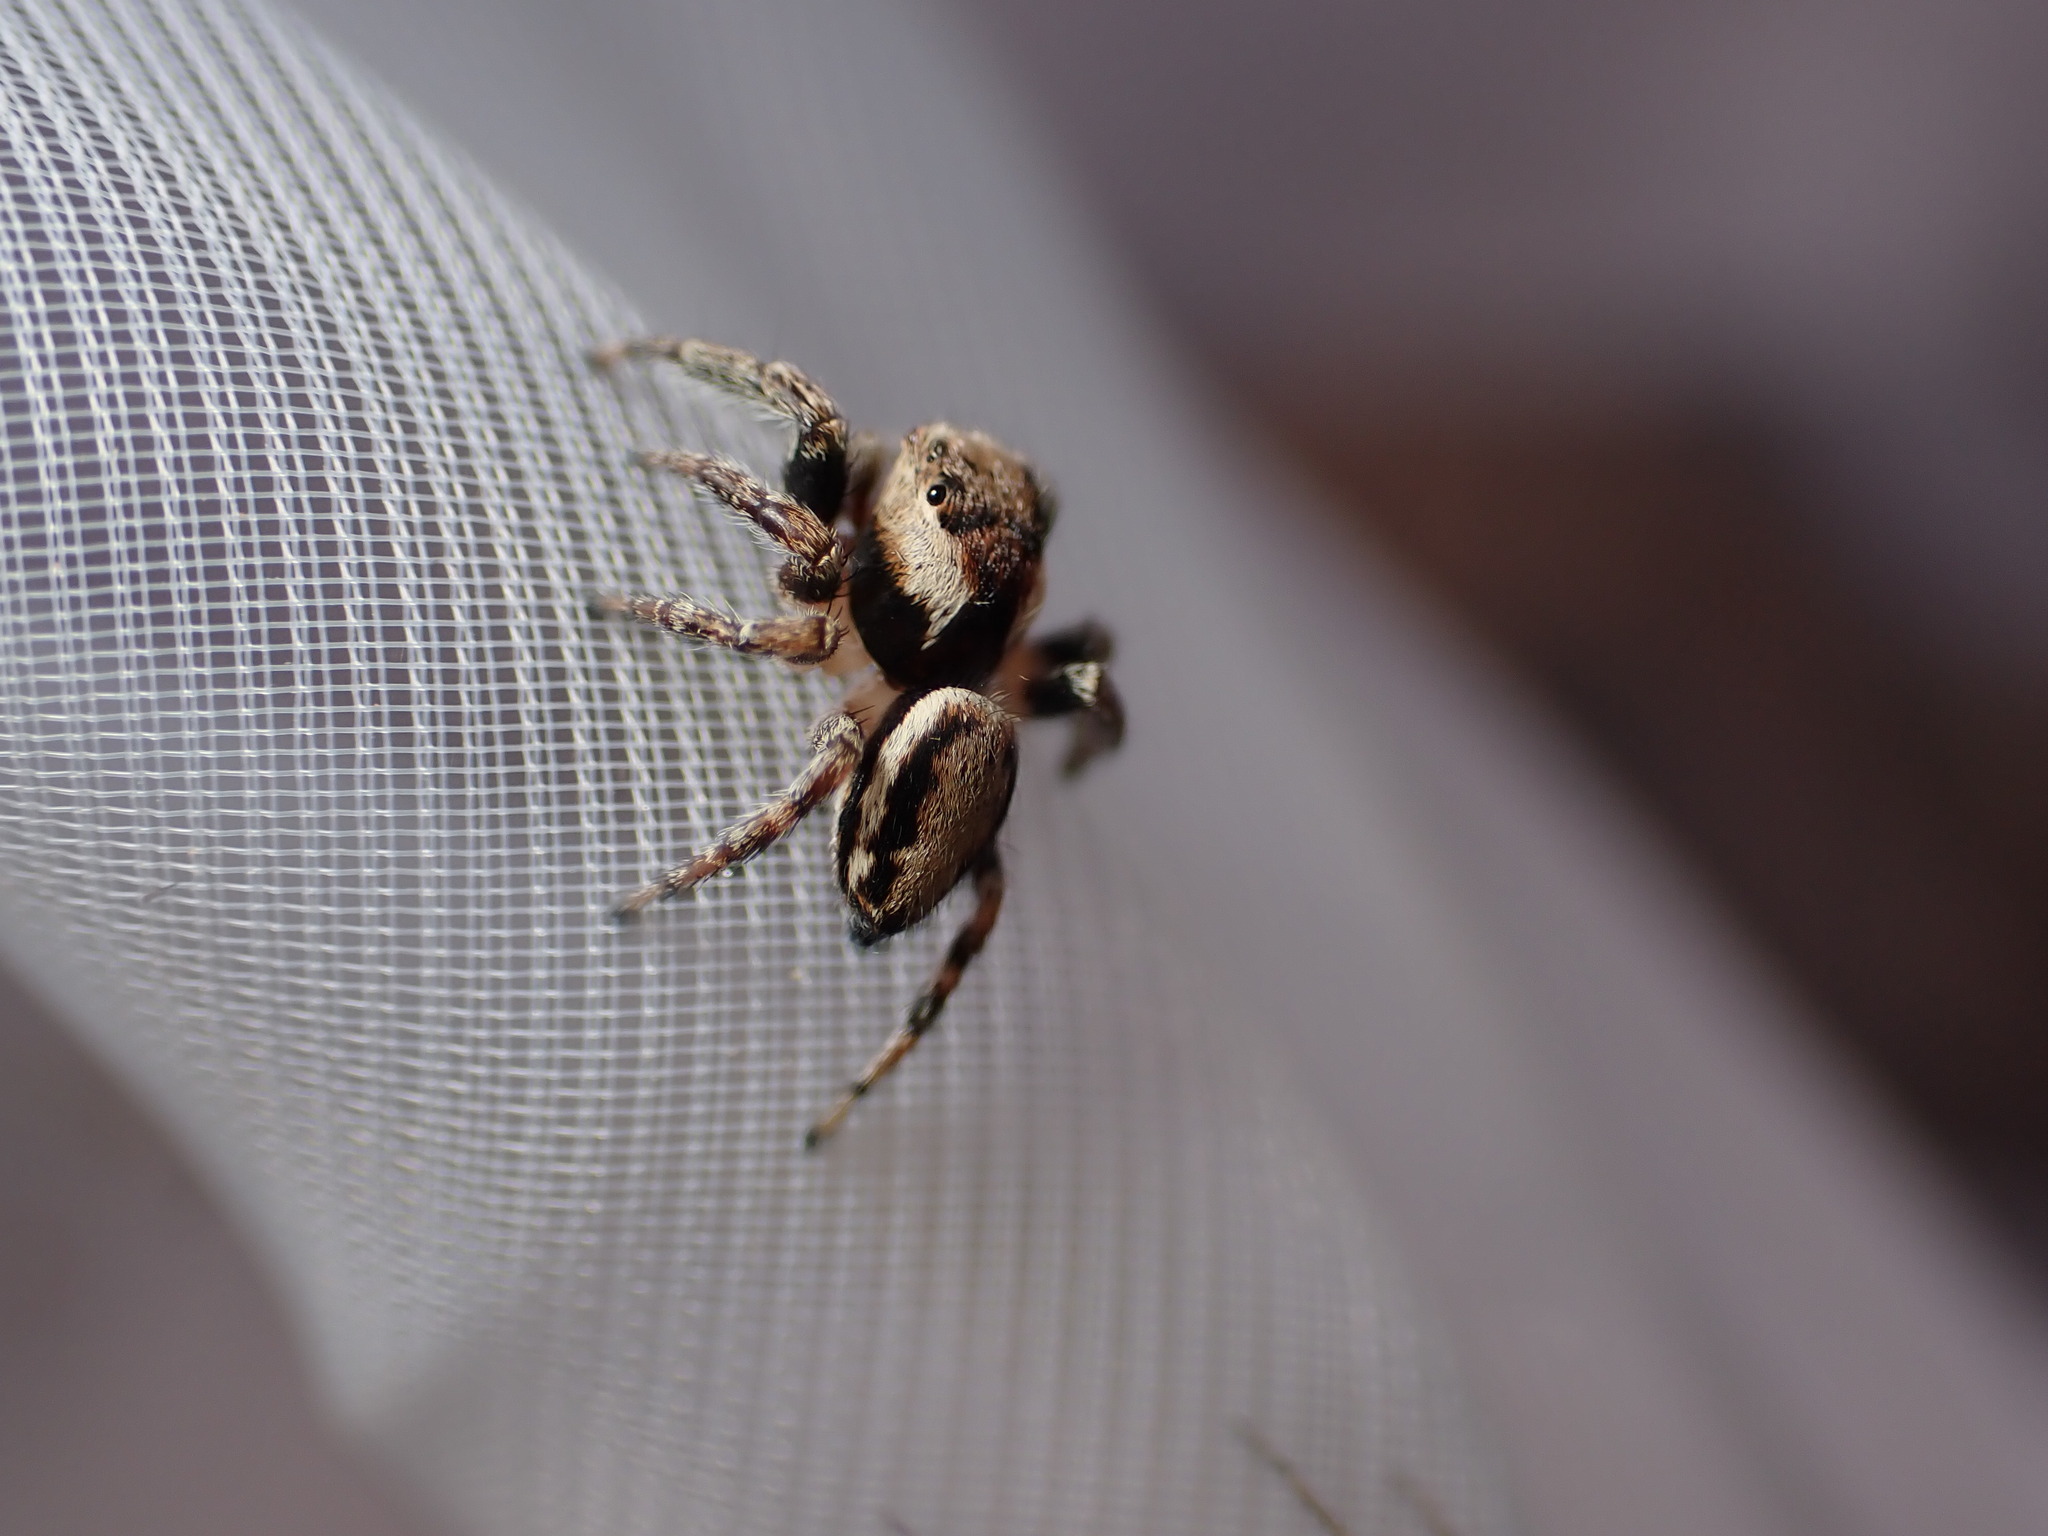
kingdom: Animalia
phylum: Arthropoda
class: Arachnida
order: Araneae
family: Salticidae
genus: Evarcha
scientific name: Evarcha falcata
